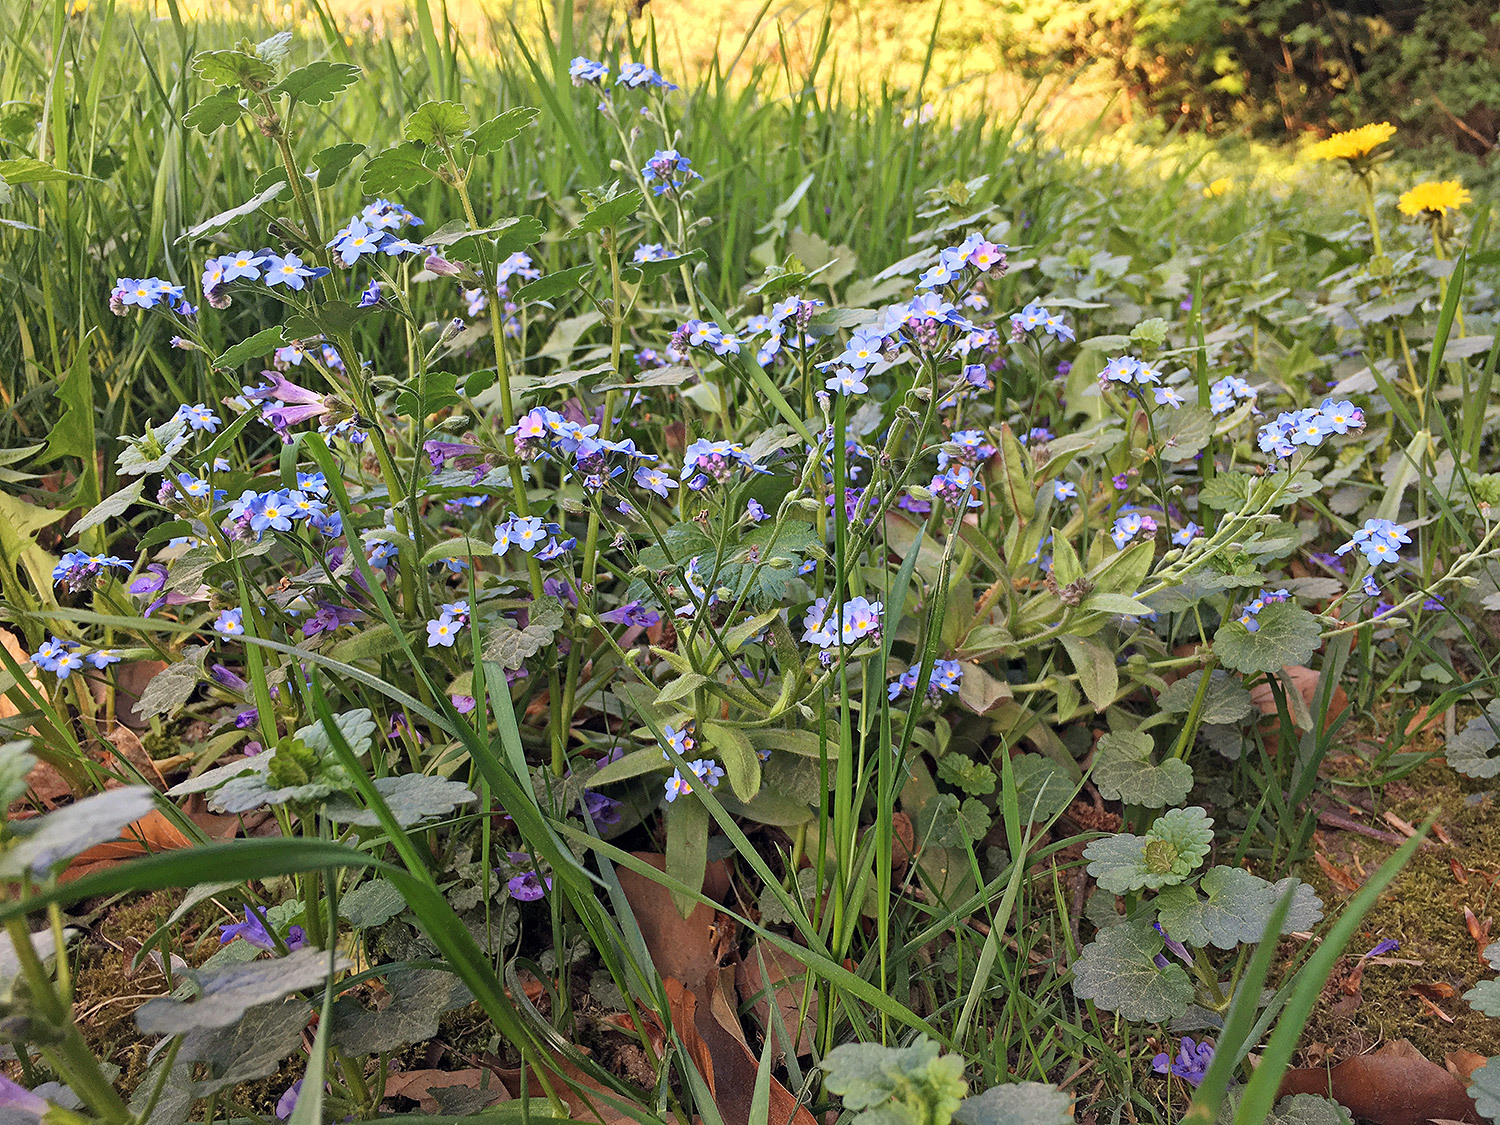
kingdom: Plantae
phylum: Tracheophyta
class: Magnoliopsida
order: Boraginales
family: Boraginaceae
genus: Myosotis
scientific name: Myosotis sylvatica
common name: Wood forget-me-not
